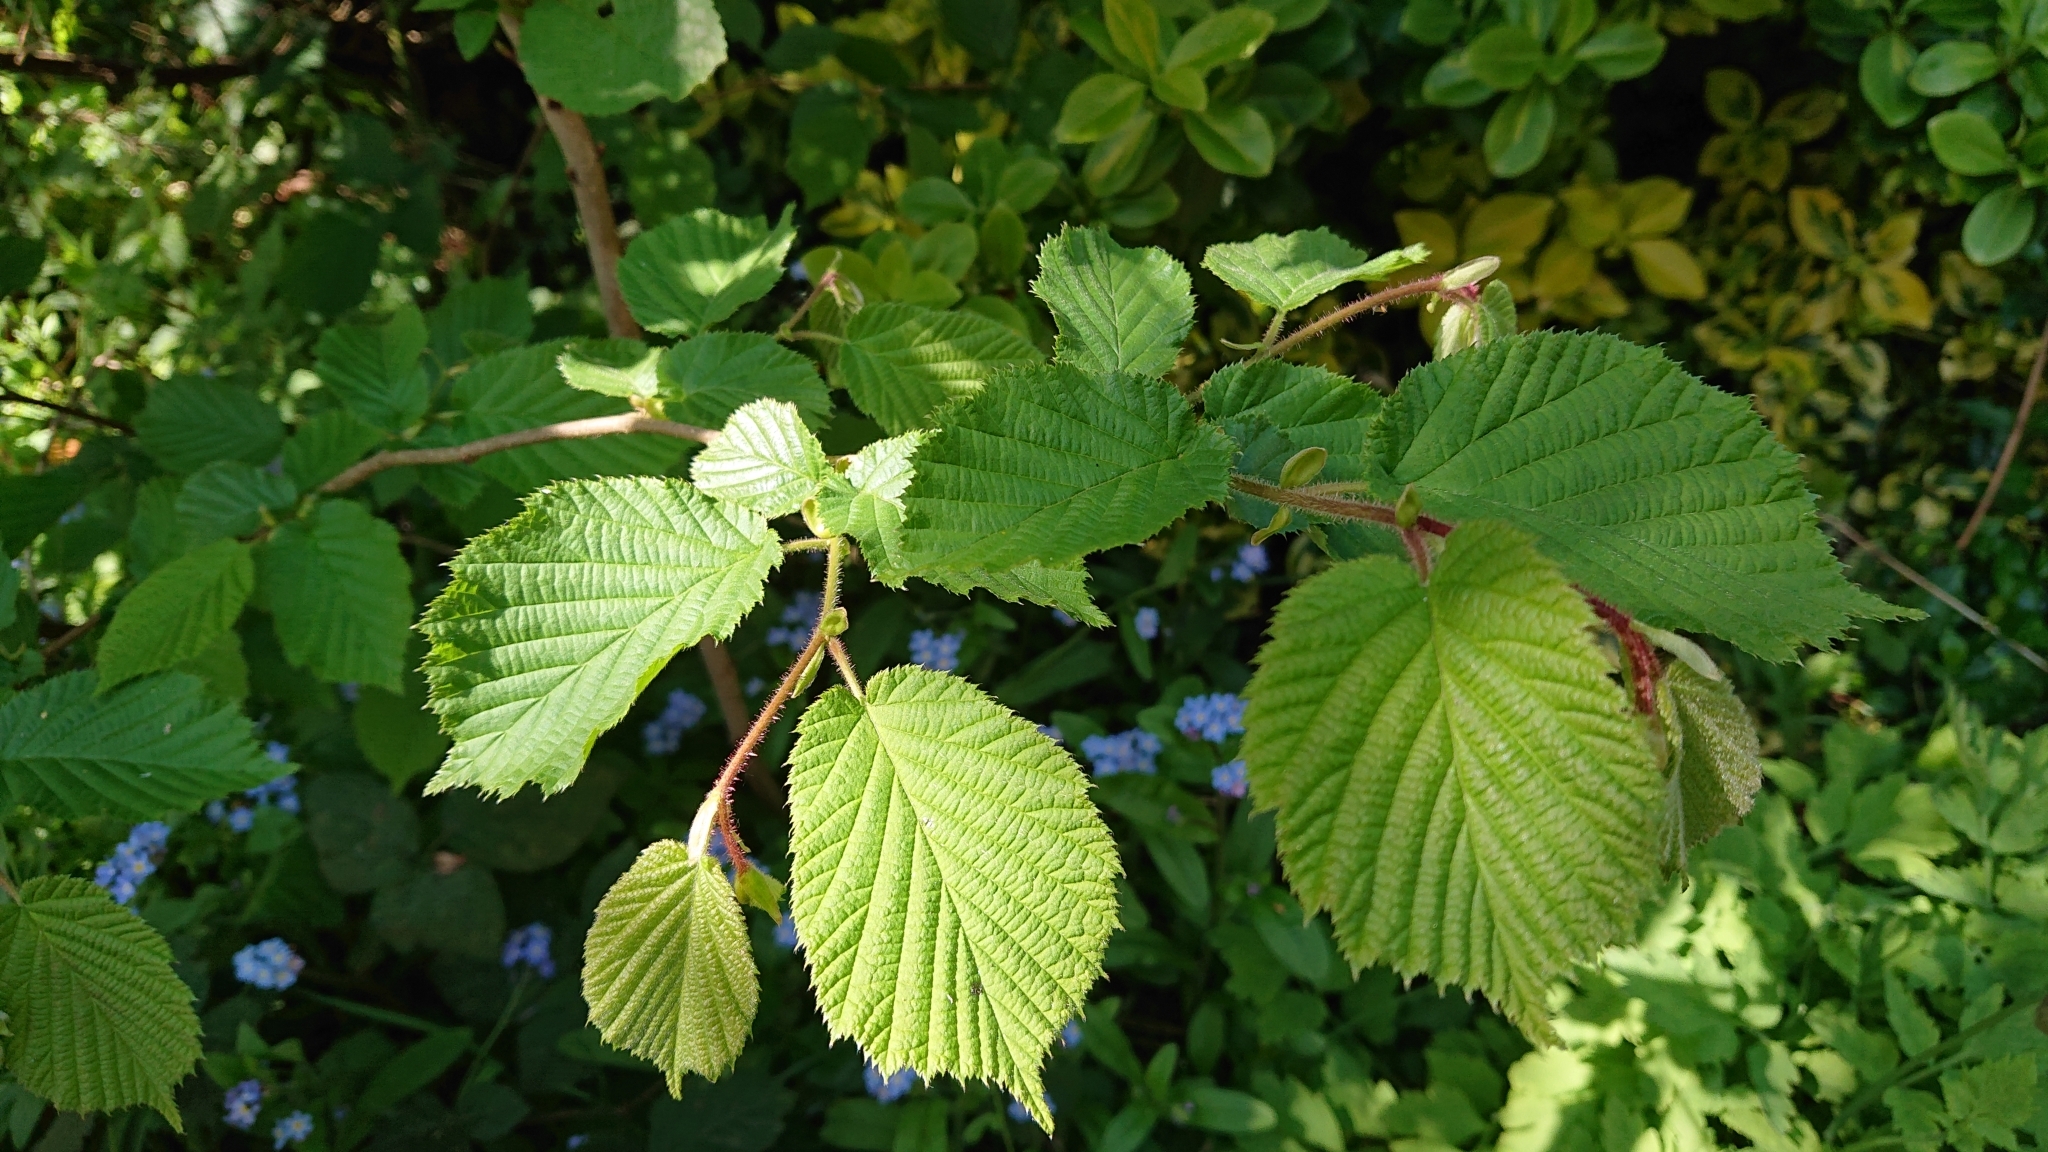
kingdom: Plantae
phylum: Tracheophyta
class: Magnoliopsida
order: Fagales
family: Betulaceae
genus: Corylus
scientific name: Corylus avellana
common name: European hazel
